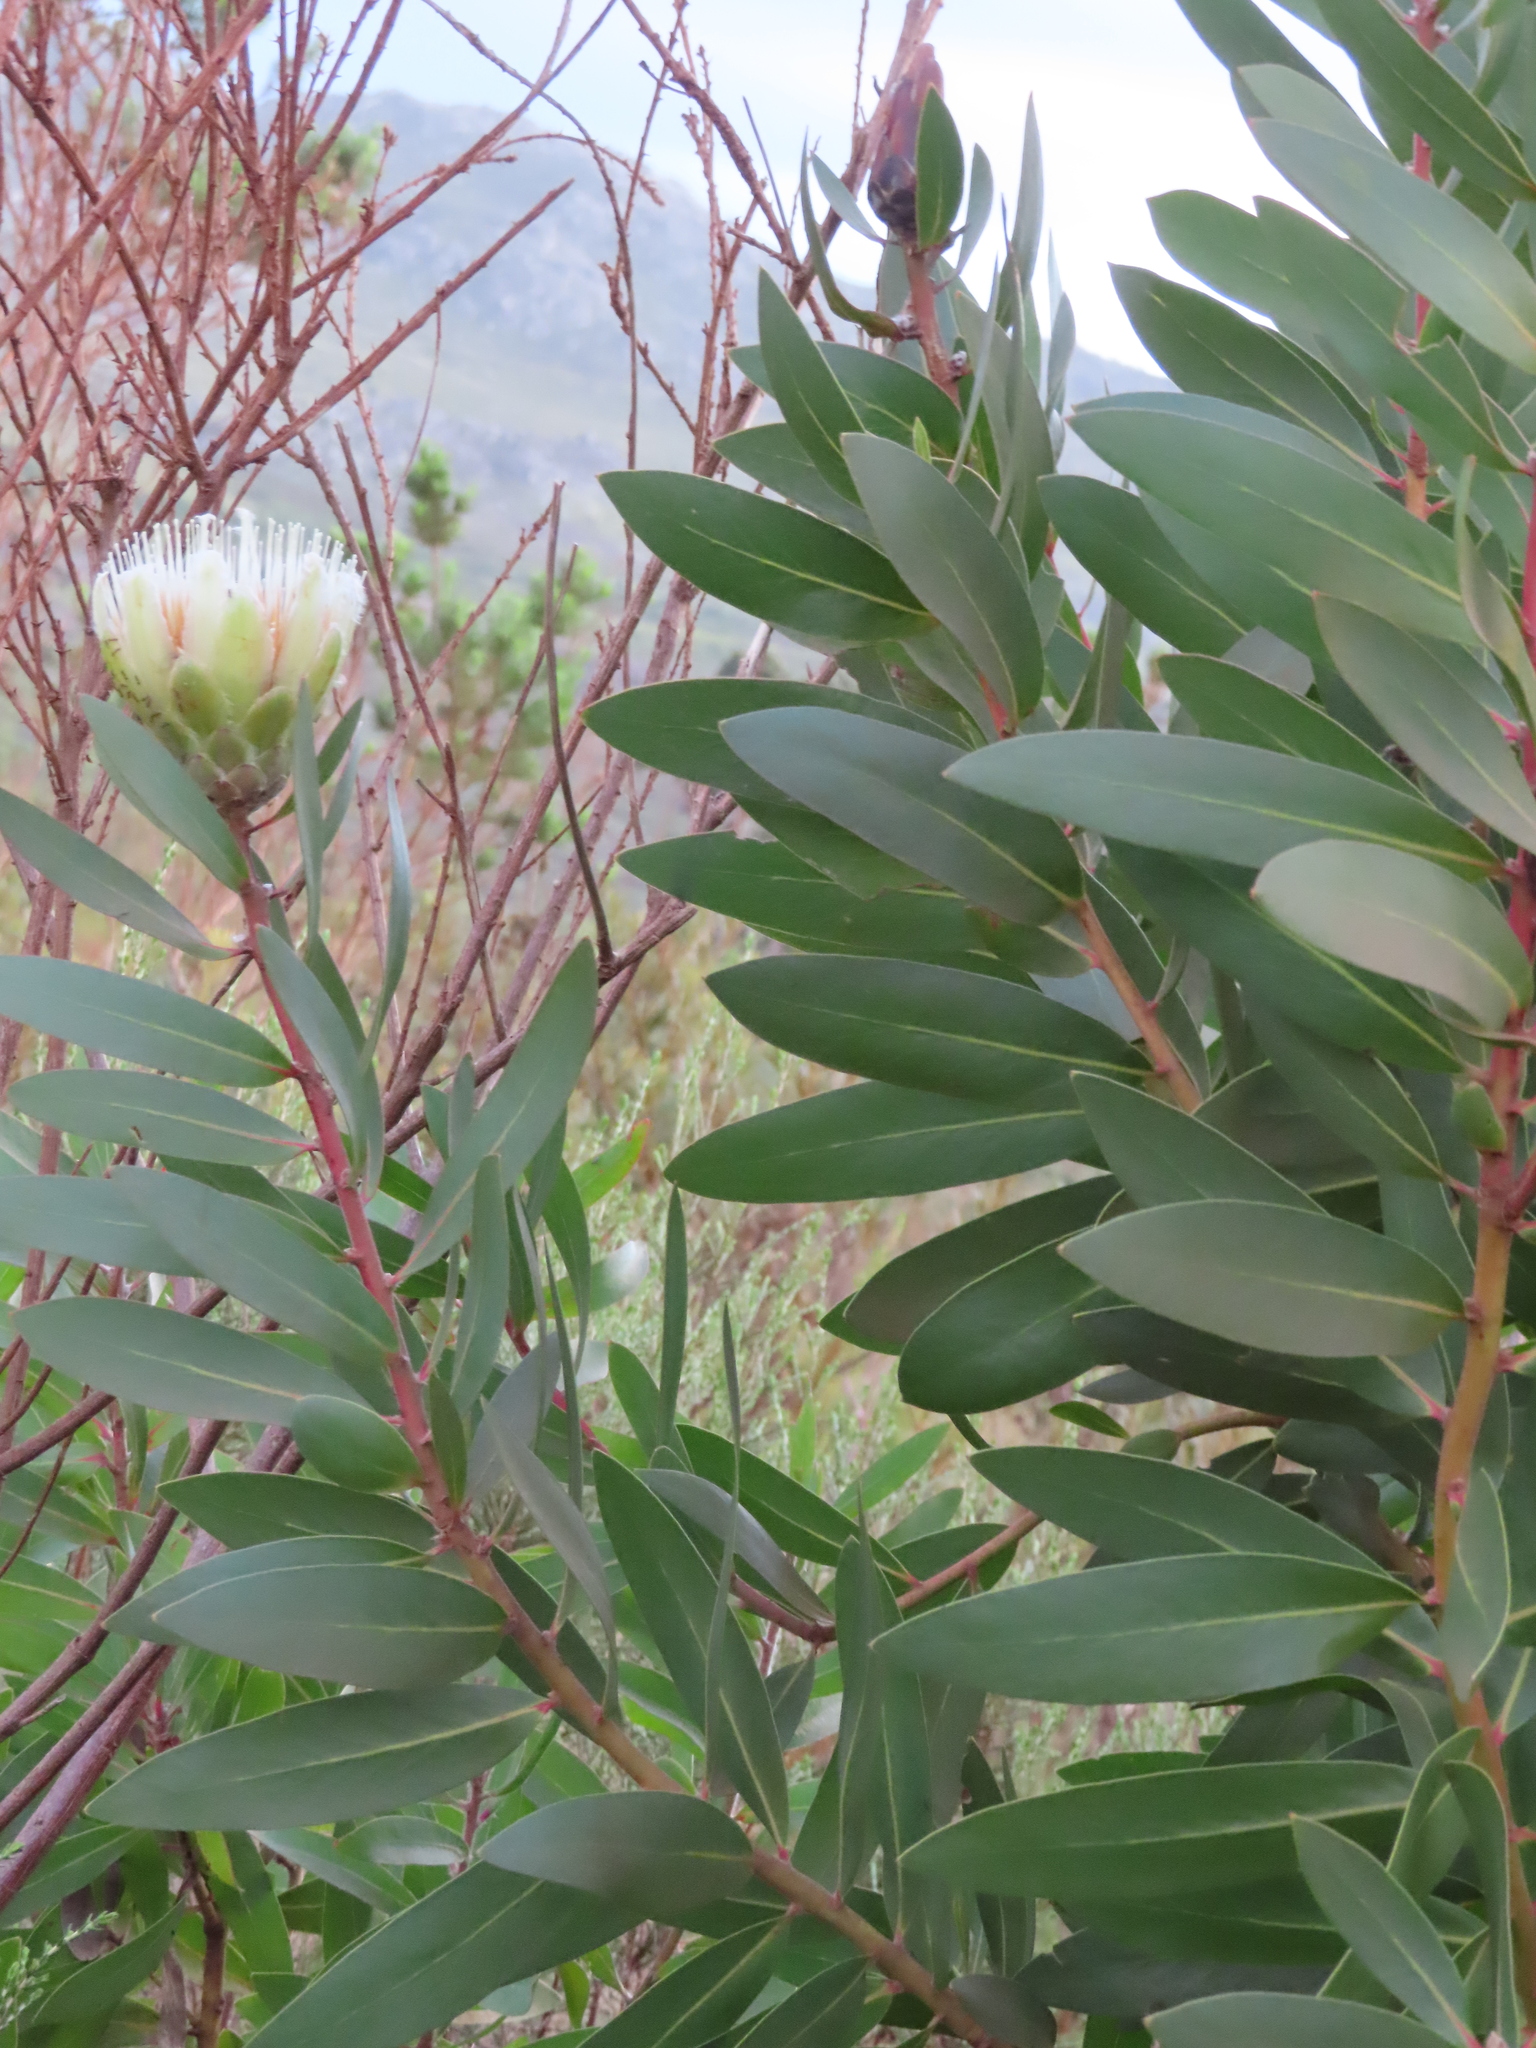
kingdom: Plantae
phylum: Tracheophyta
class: Magnoliopsida
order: Proteales
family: Proteaceae
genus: Protea
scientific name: Protea mundii
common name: Forest sugarbush
